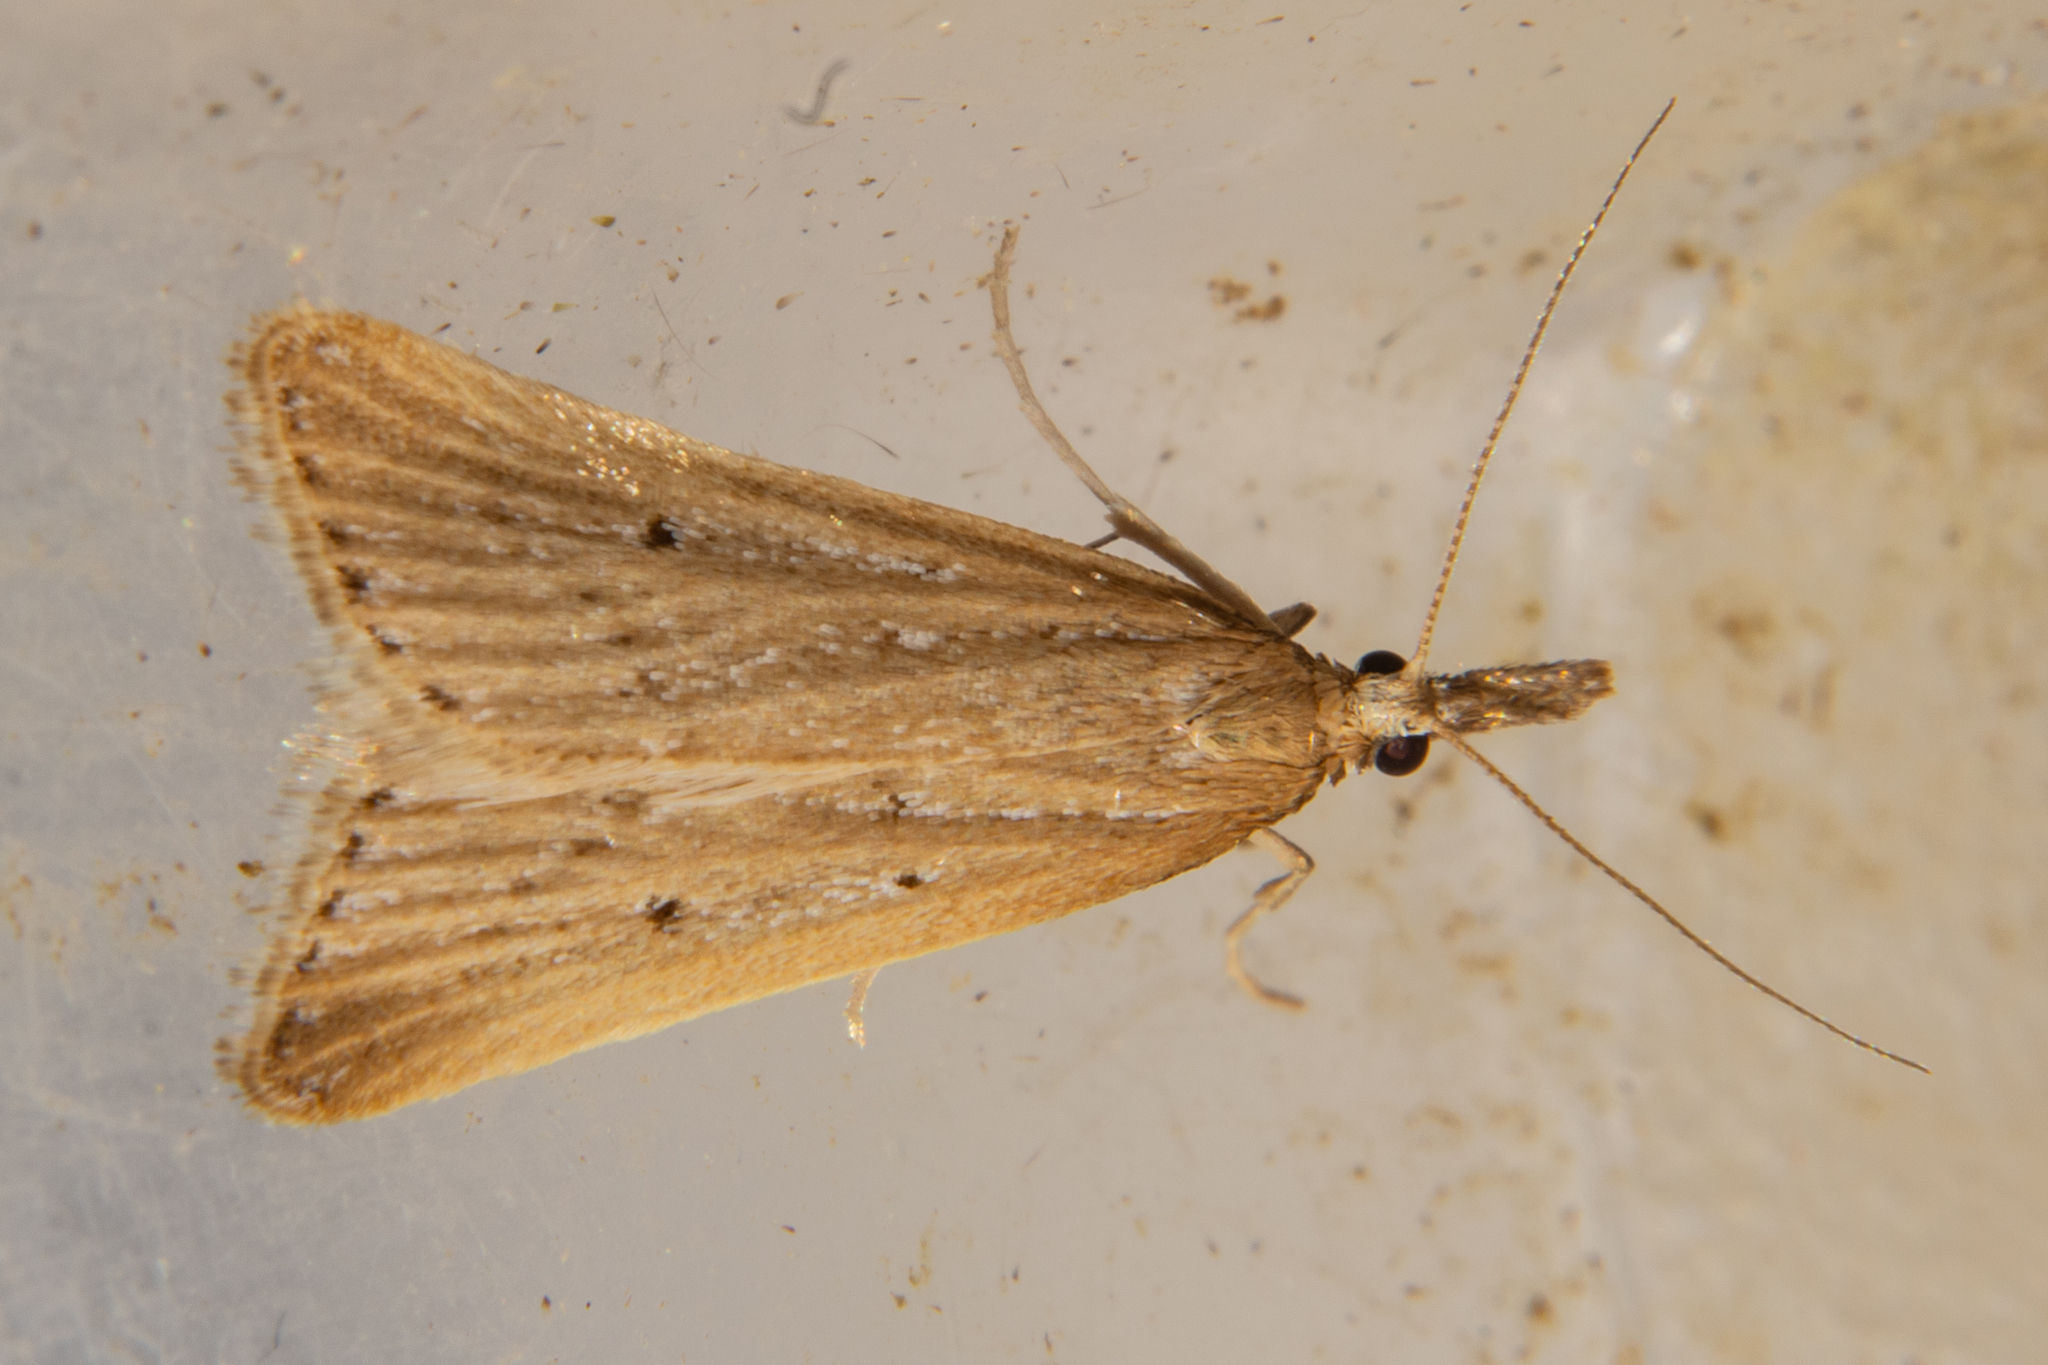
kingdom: Animalia
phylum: Arthropoda
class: Insecta
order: Lepidoptera
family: Crambidae
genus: Antiscopa
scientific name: Antiscopa elaphra
